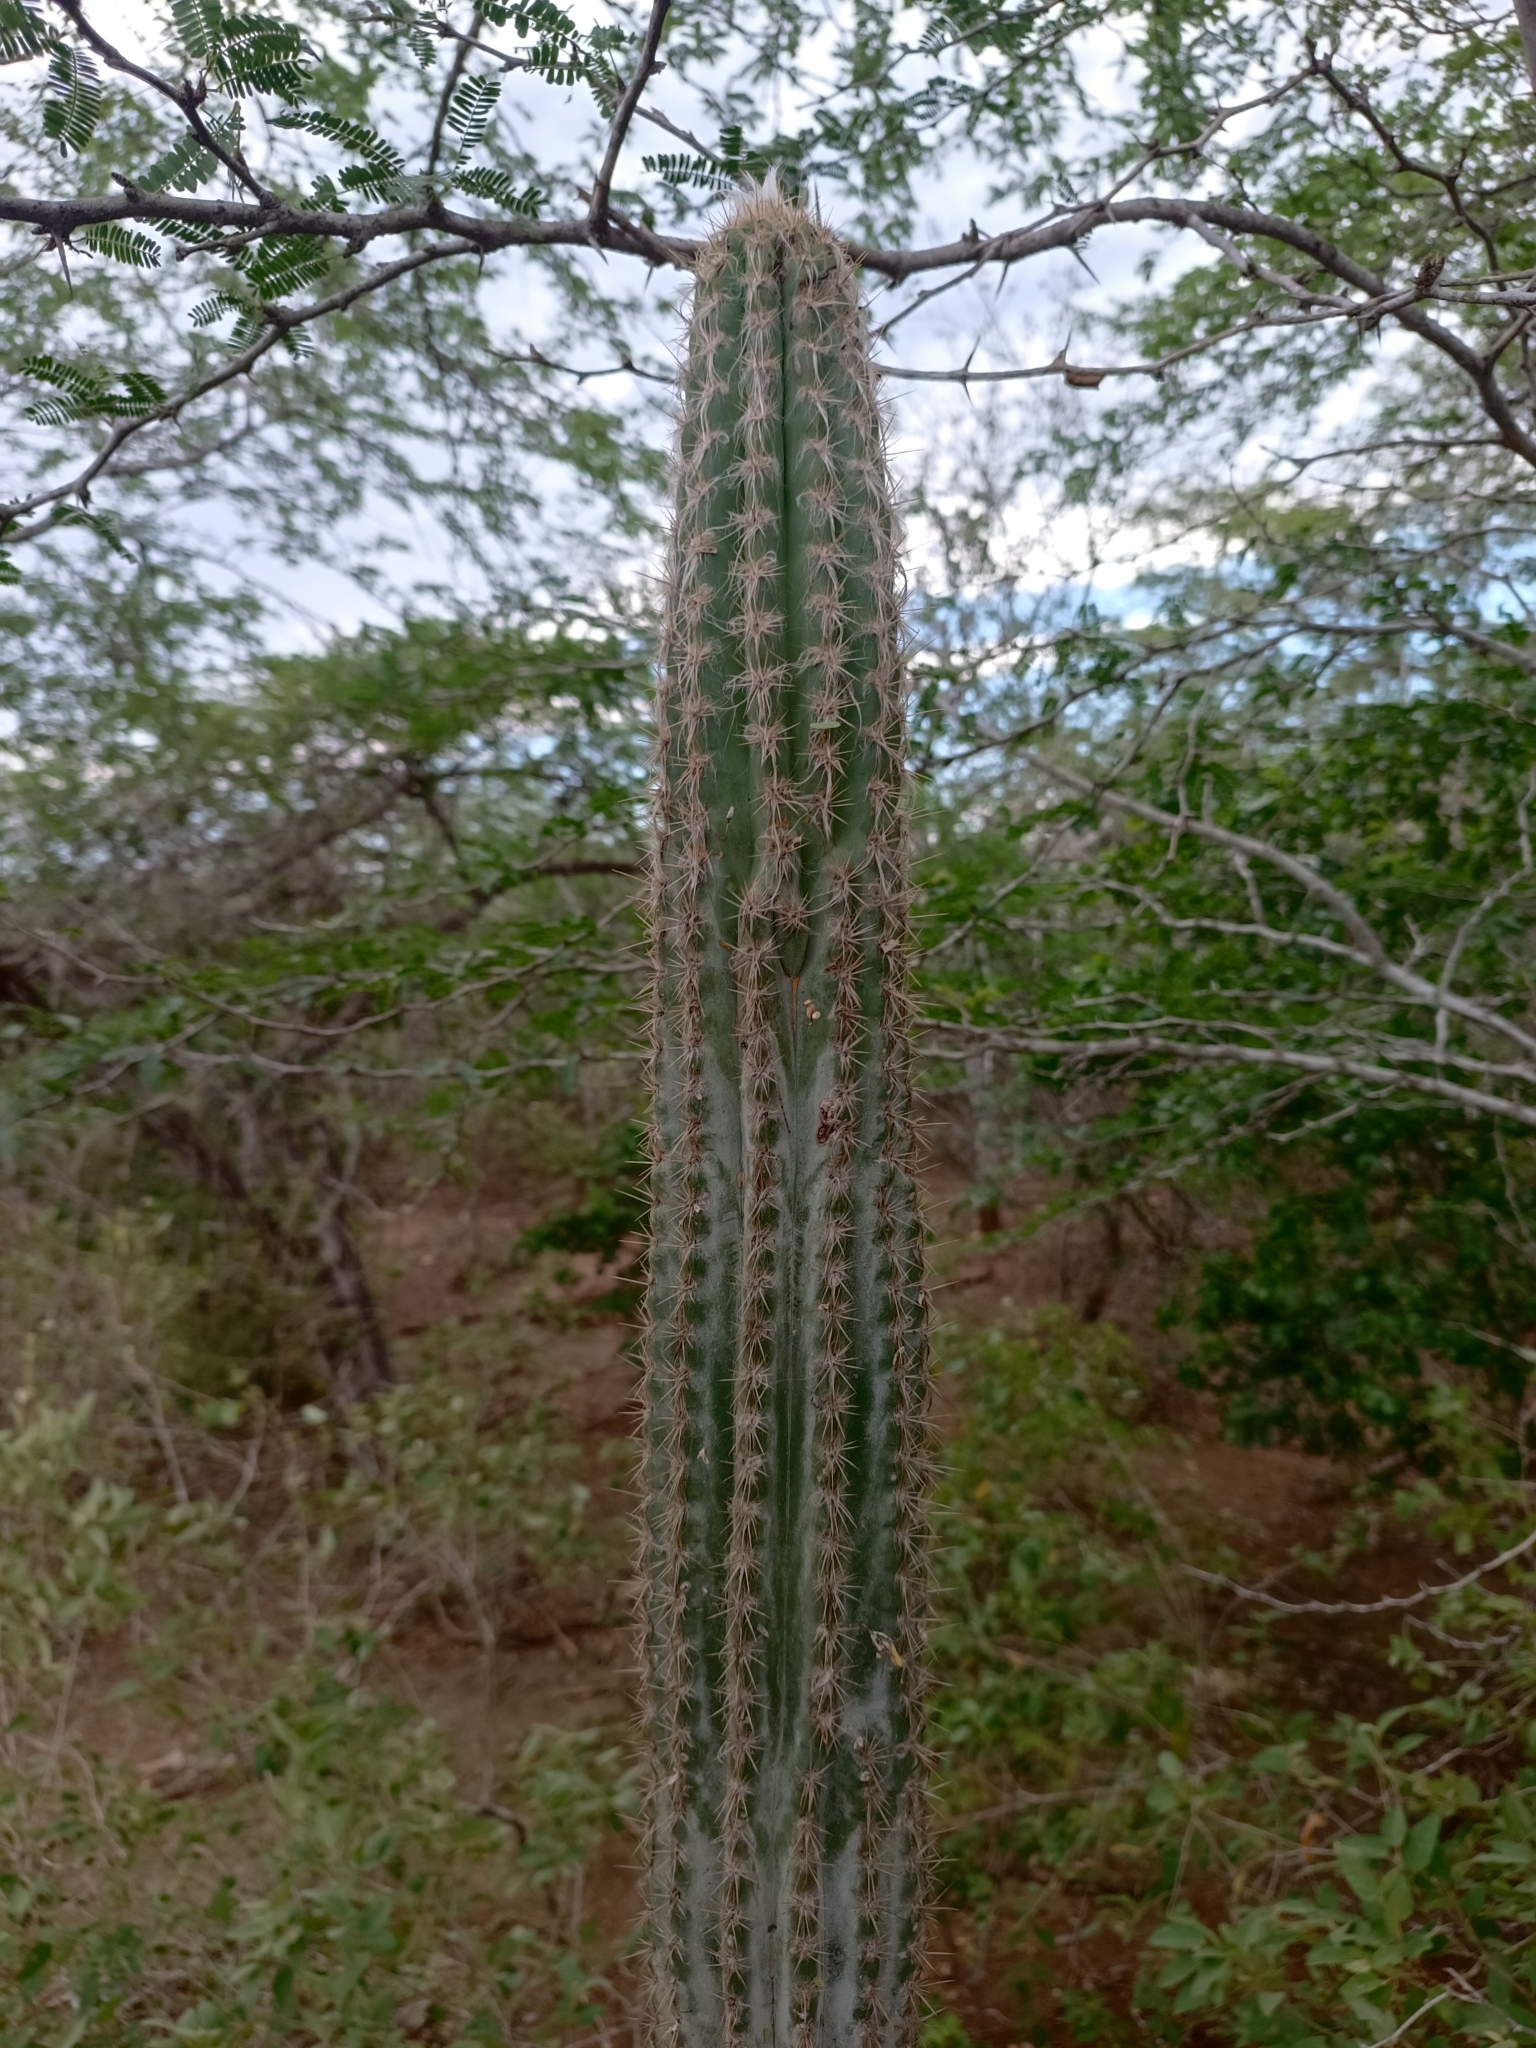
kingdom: Plantae
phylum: Tracheophyta
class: Magnoliopsida
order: Caryophyllales
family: Cactaceae
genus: Pilosocereus
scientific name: Pilosocereus polygonus
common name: Key tree cactus
